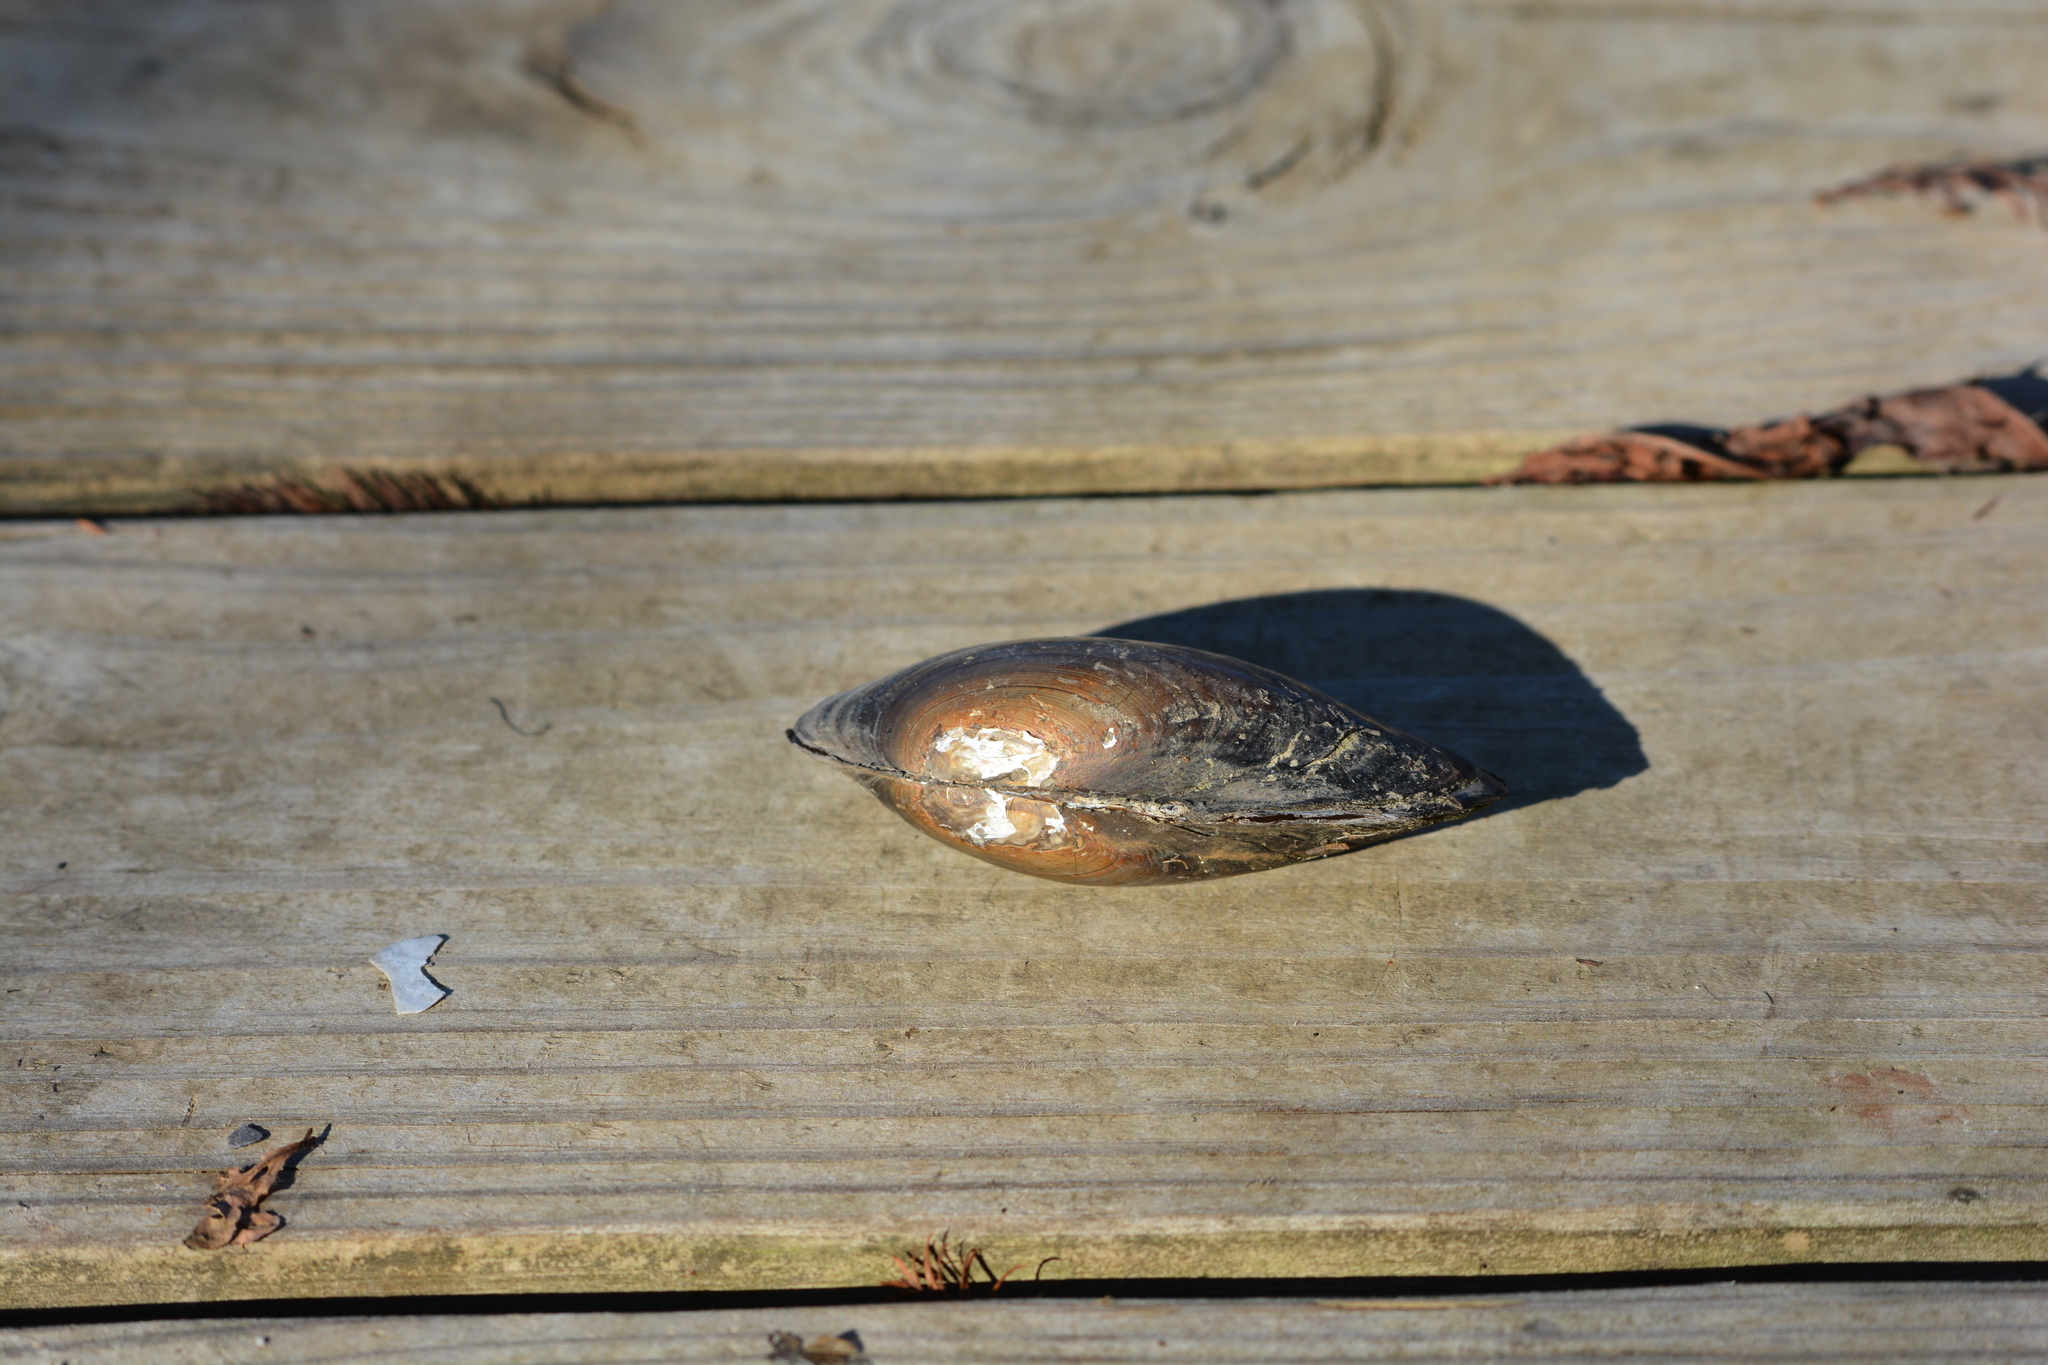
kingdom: Animalia
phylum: Mollusca
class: Bivalvia
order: Unionida
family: Unionidae
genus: Utterbackia
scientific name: Utterbackia imbecillis
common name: Paper pondshell
